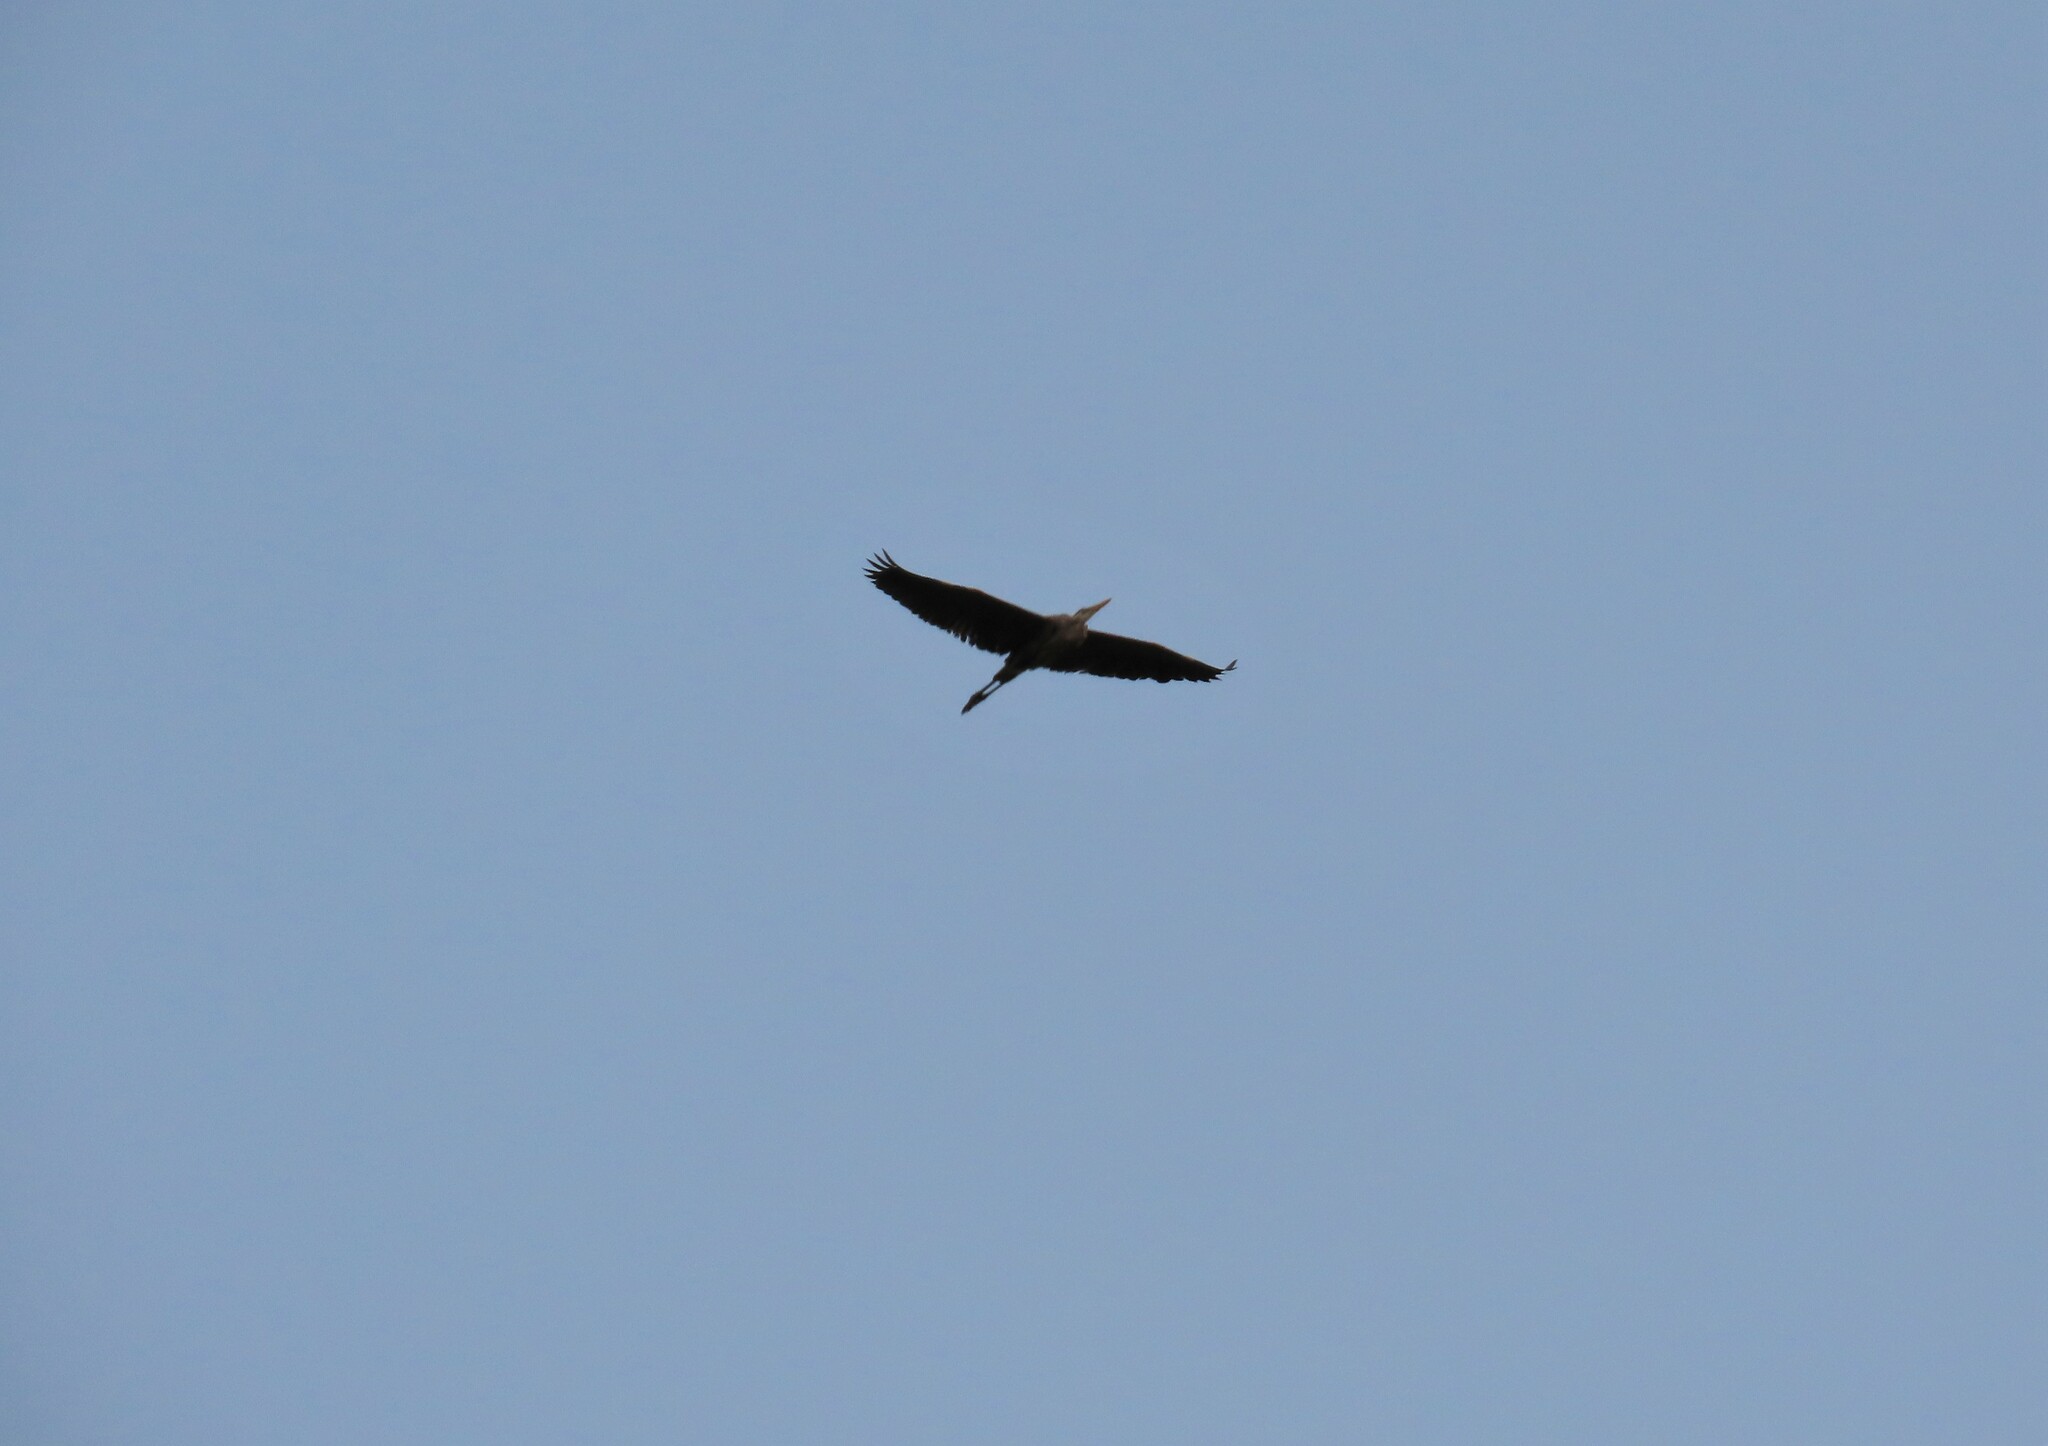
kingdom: Animalia
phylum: Chordata
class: Aves
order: Pelecaniformes
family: Ardeidae
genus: Ardea
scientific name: Ardea herodias
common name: Great blue heron
